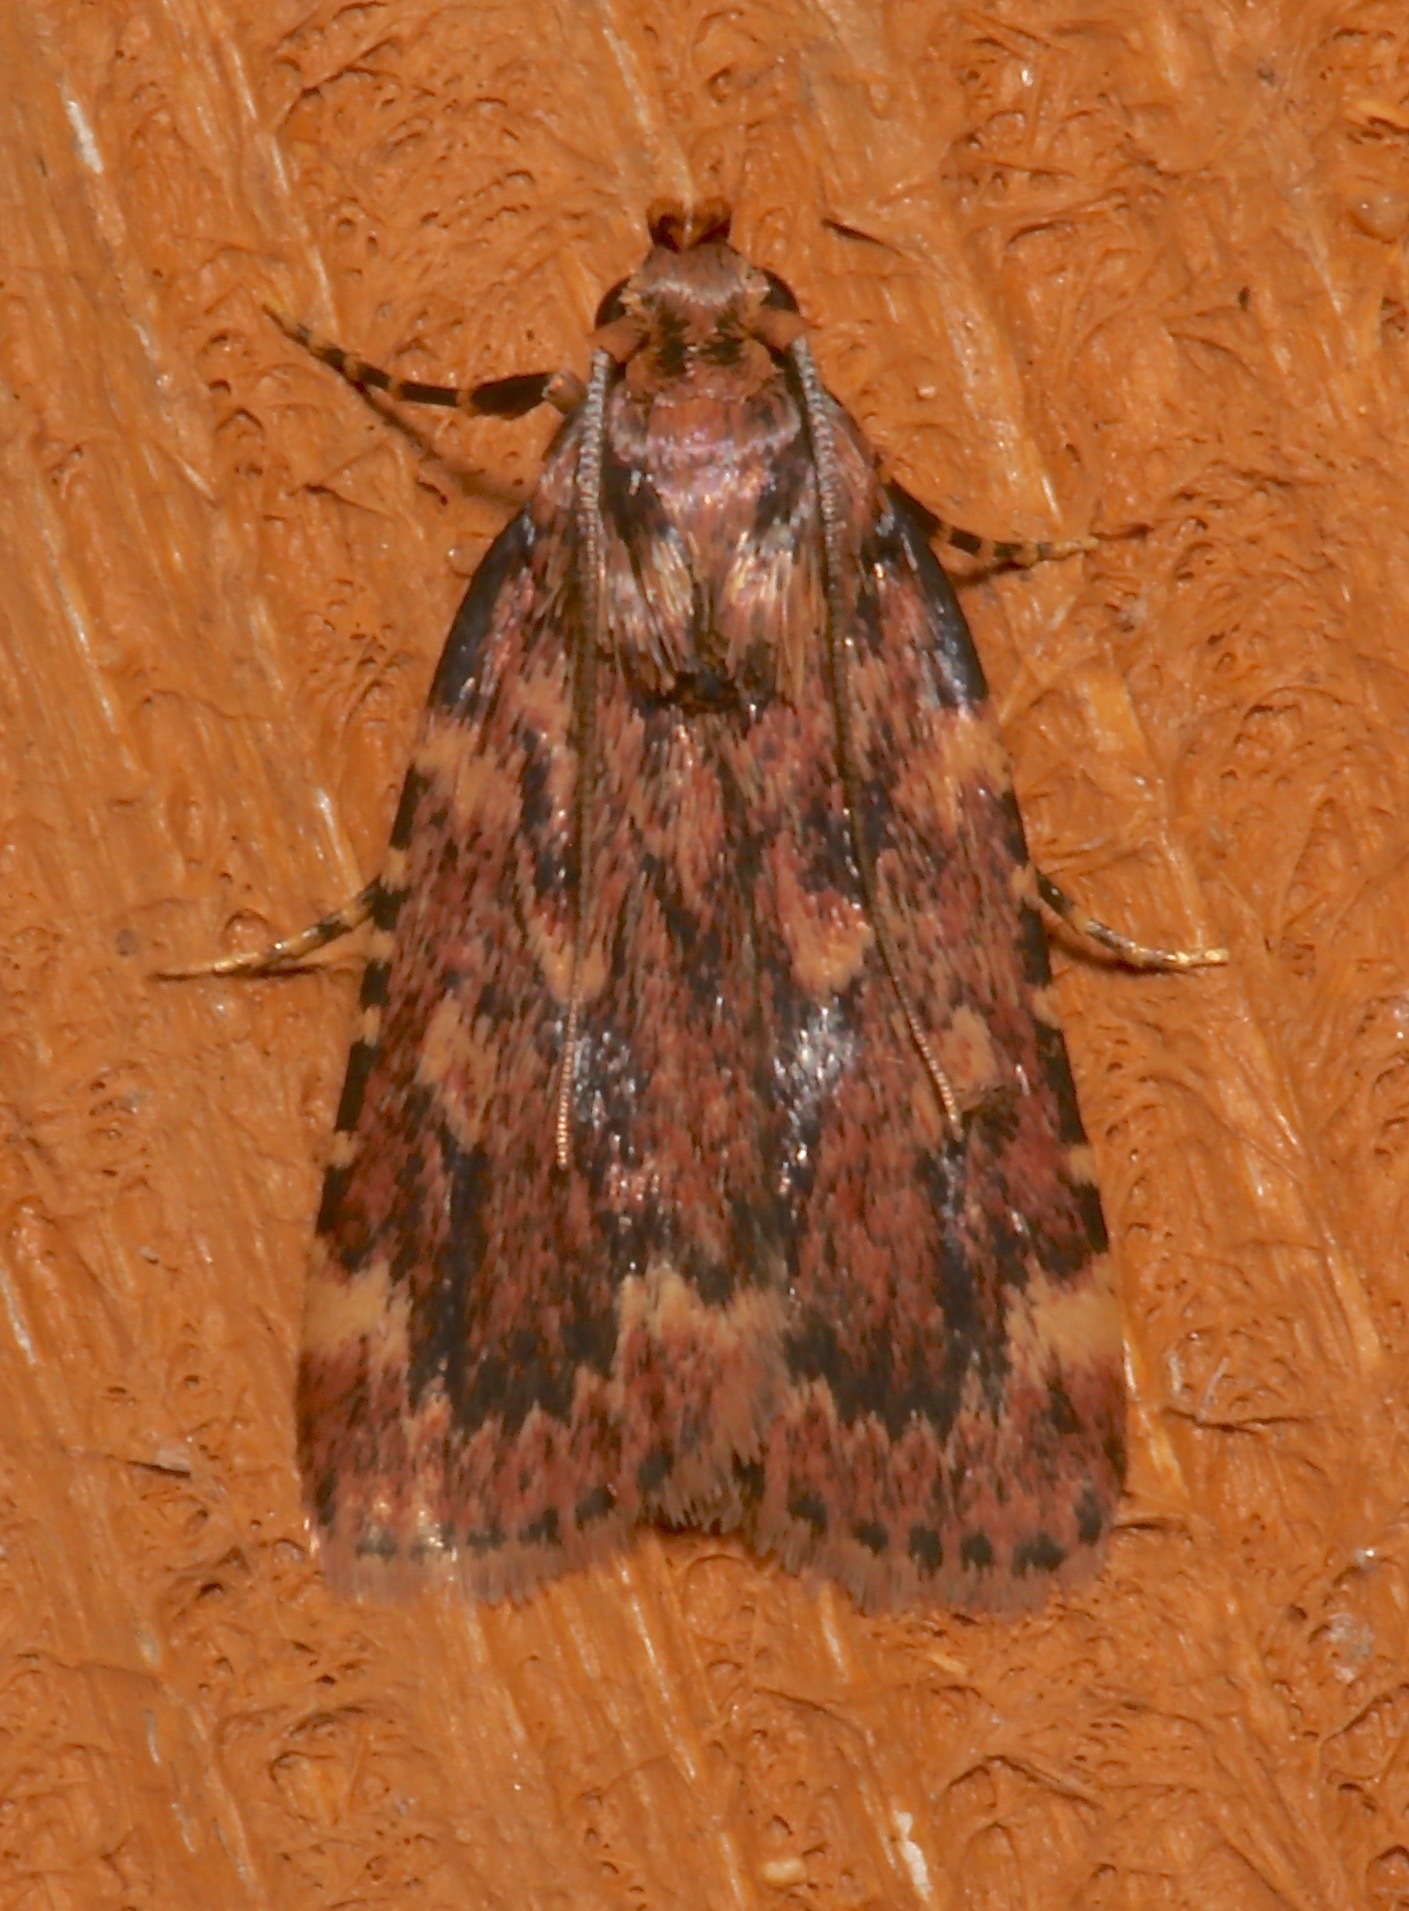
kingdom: Animalia
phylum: Arthropoda
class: Insecta
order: Lepidoptera
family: Pyralidae
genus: Aglossa
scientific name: Aglossa cuprina
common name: Grease moth
